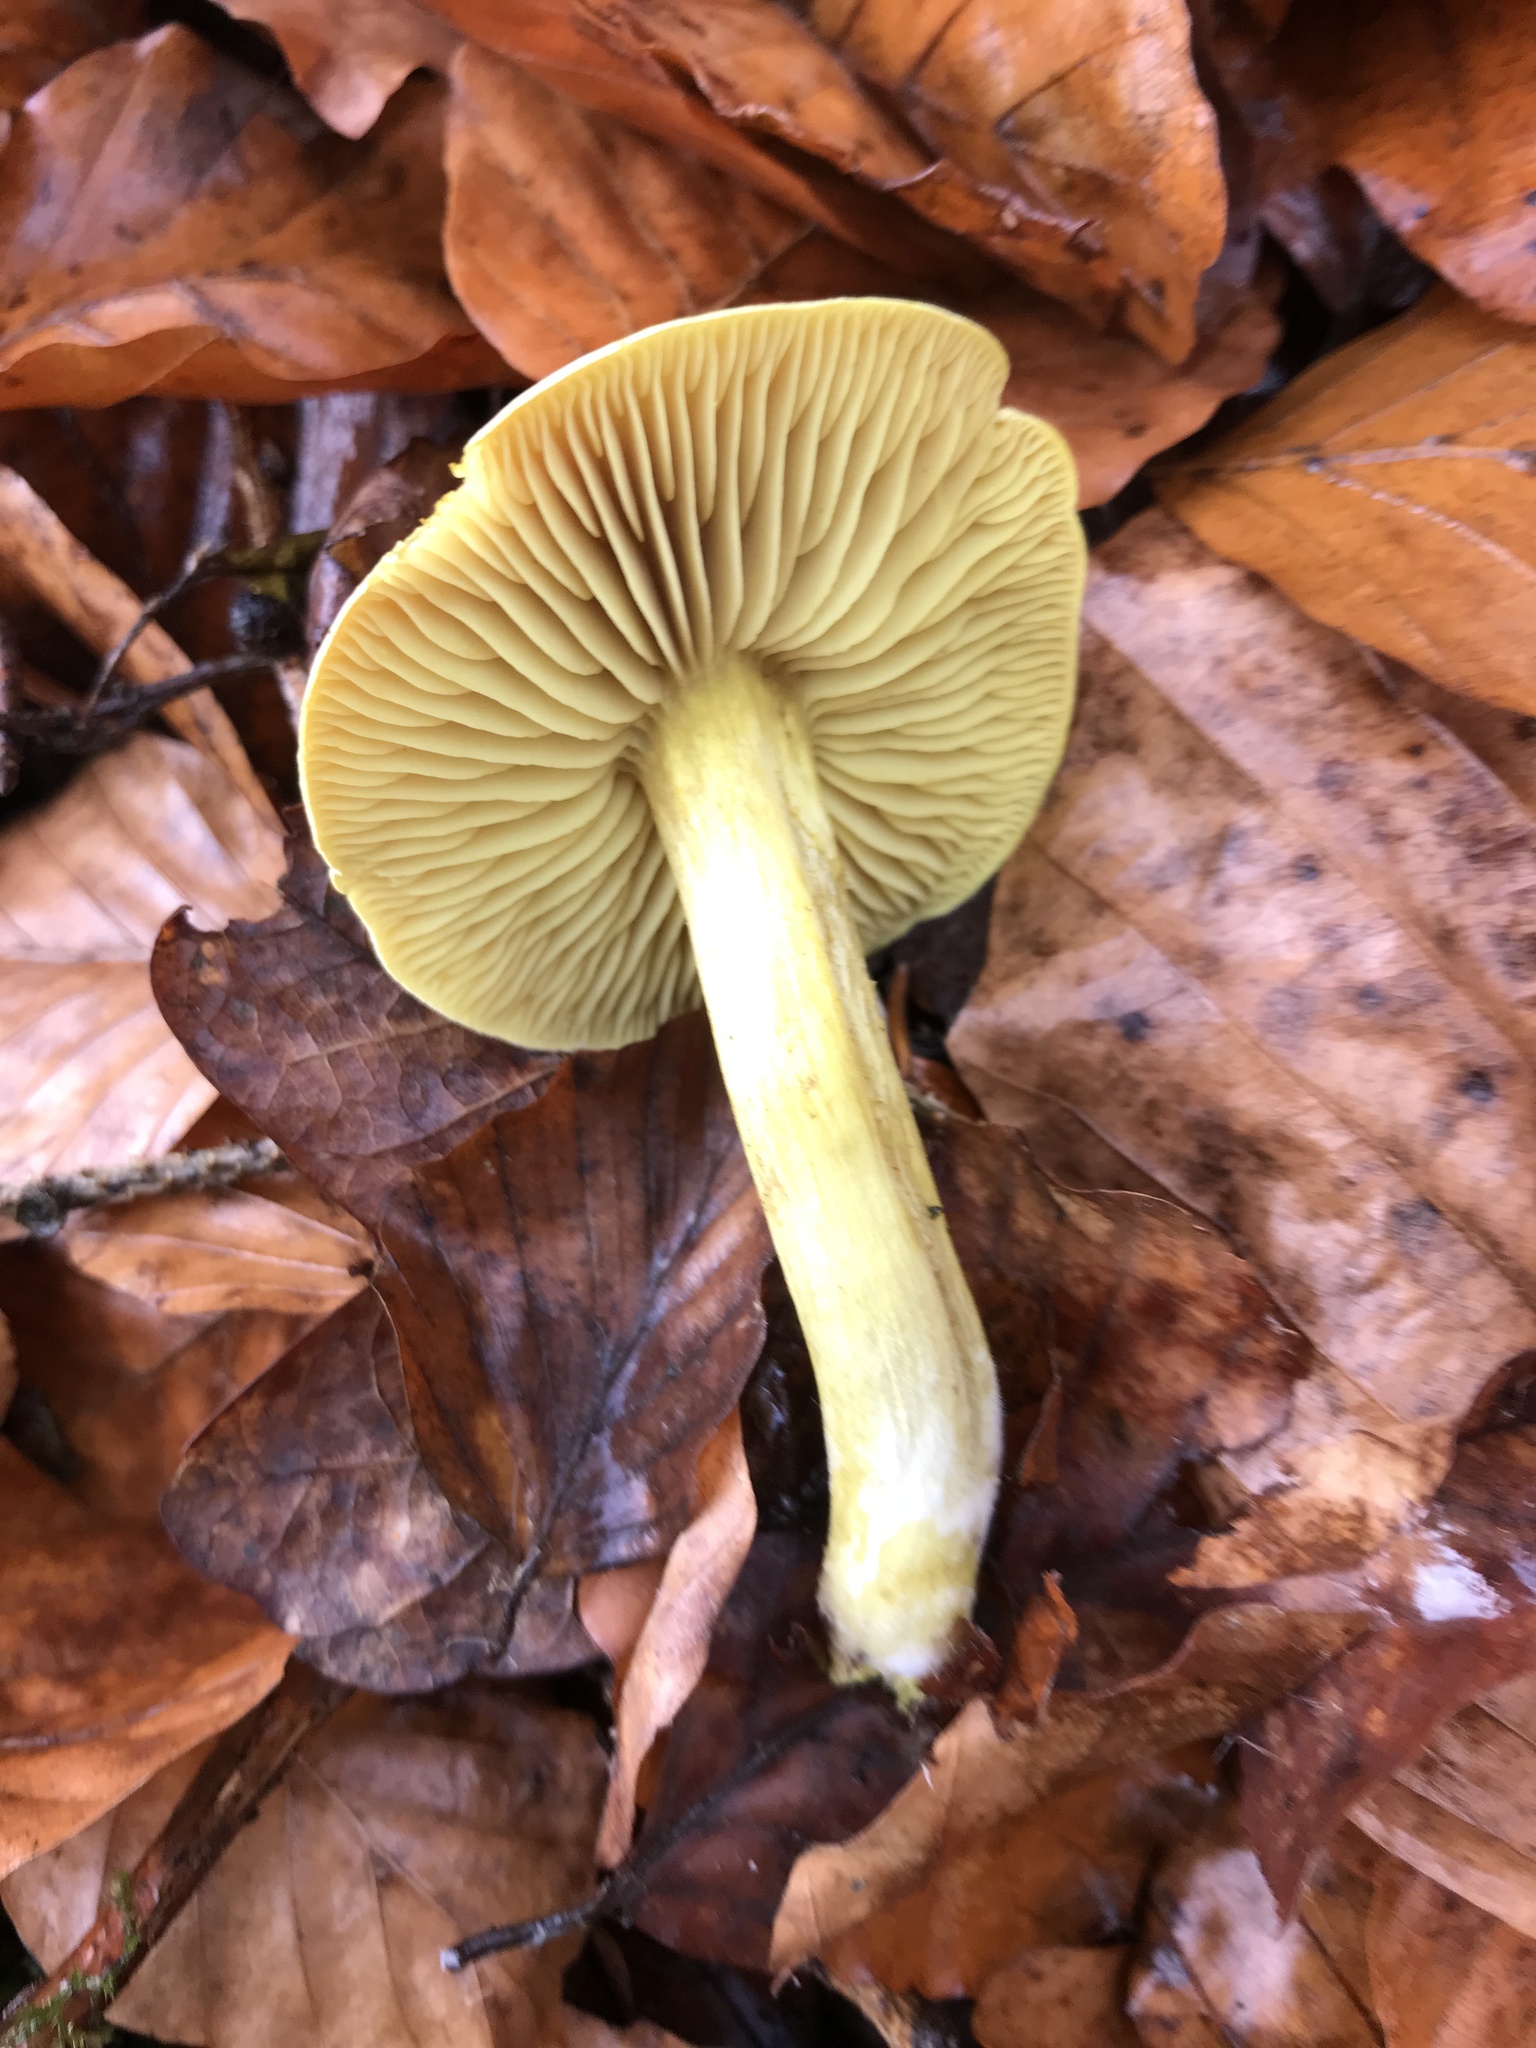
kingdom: Fungi
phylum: Basidiomycota
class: Agaricomycetes
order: Agaricales
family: Tricholomataceae
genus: Tricholoma
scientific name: Tricholoma sulphureum
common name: Stinky knight
